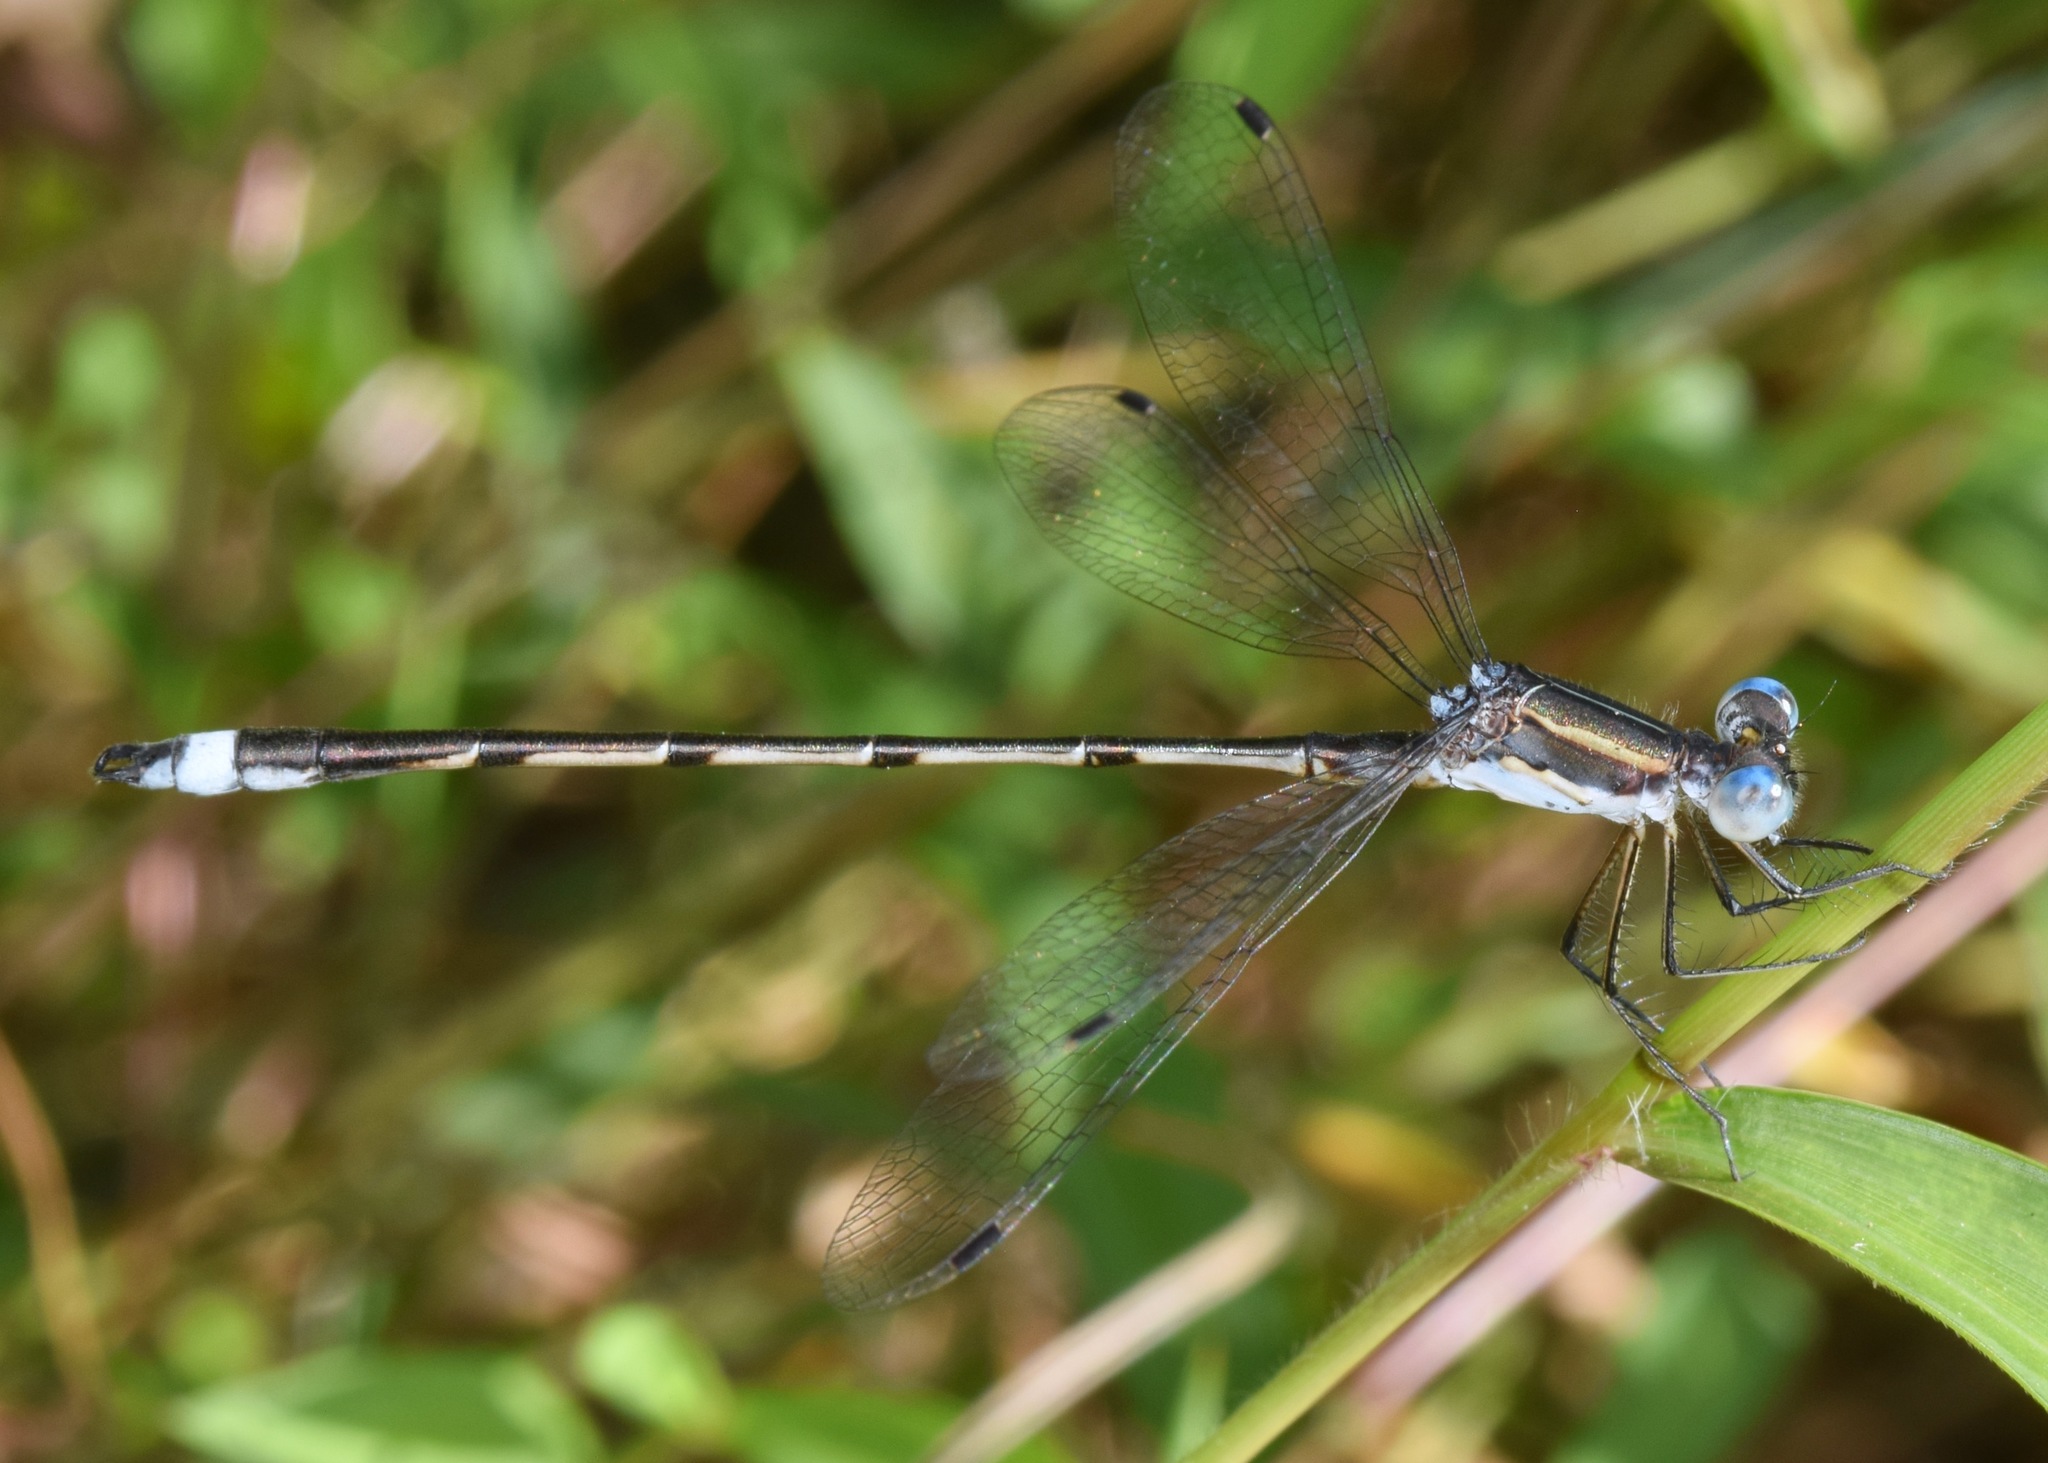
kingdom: Animalia
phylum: Arthropoda
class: Insecta
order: Odonata
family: Lestidae
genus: Lestes
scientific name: Lestes australis
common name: Southern spreadwing
